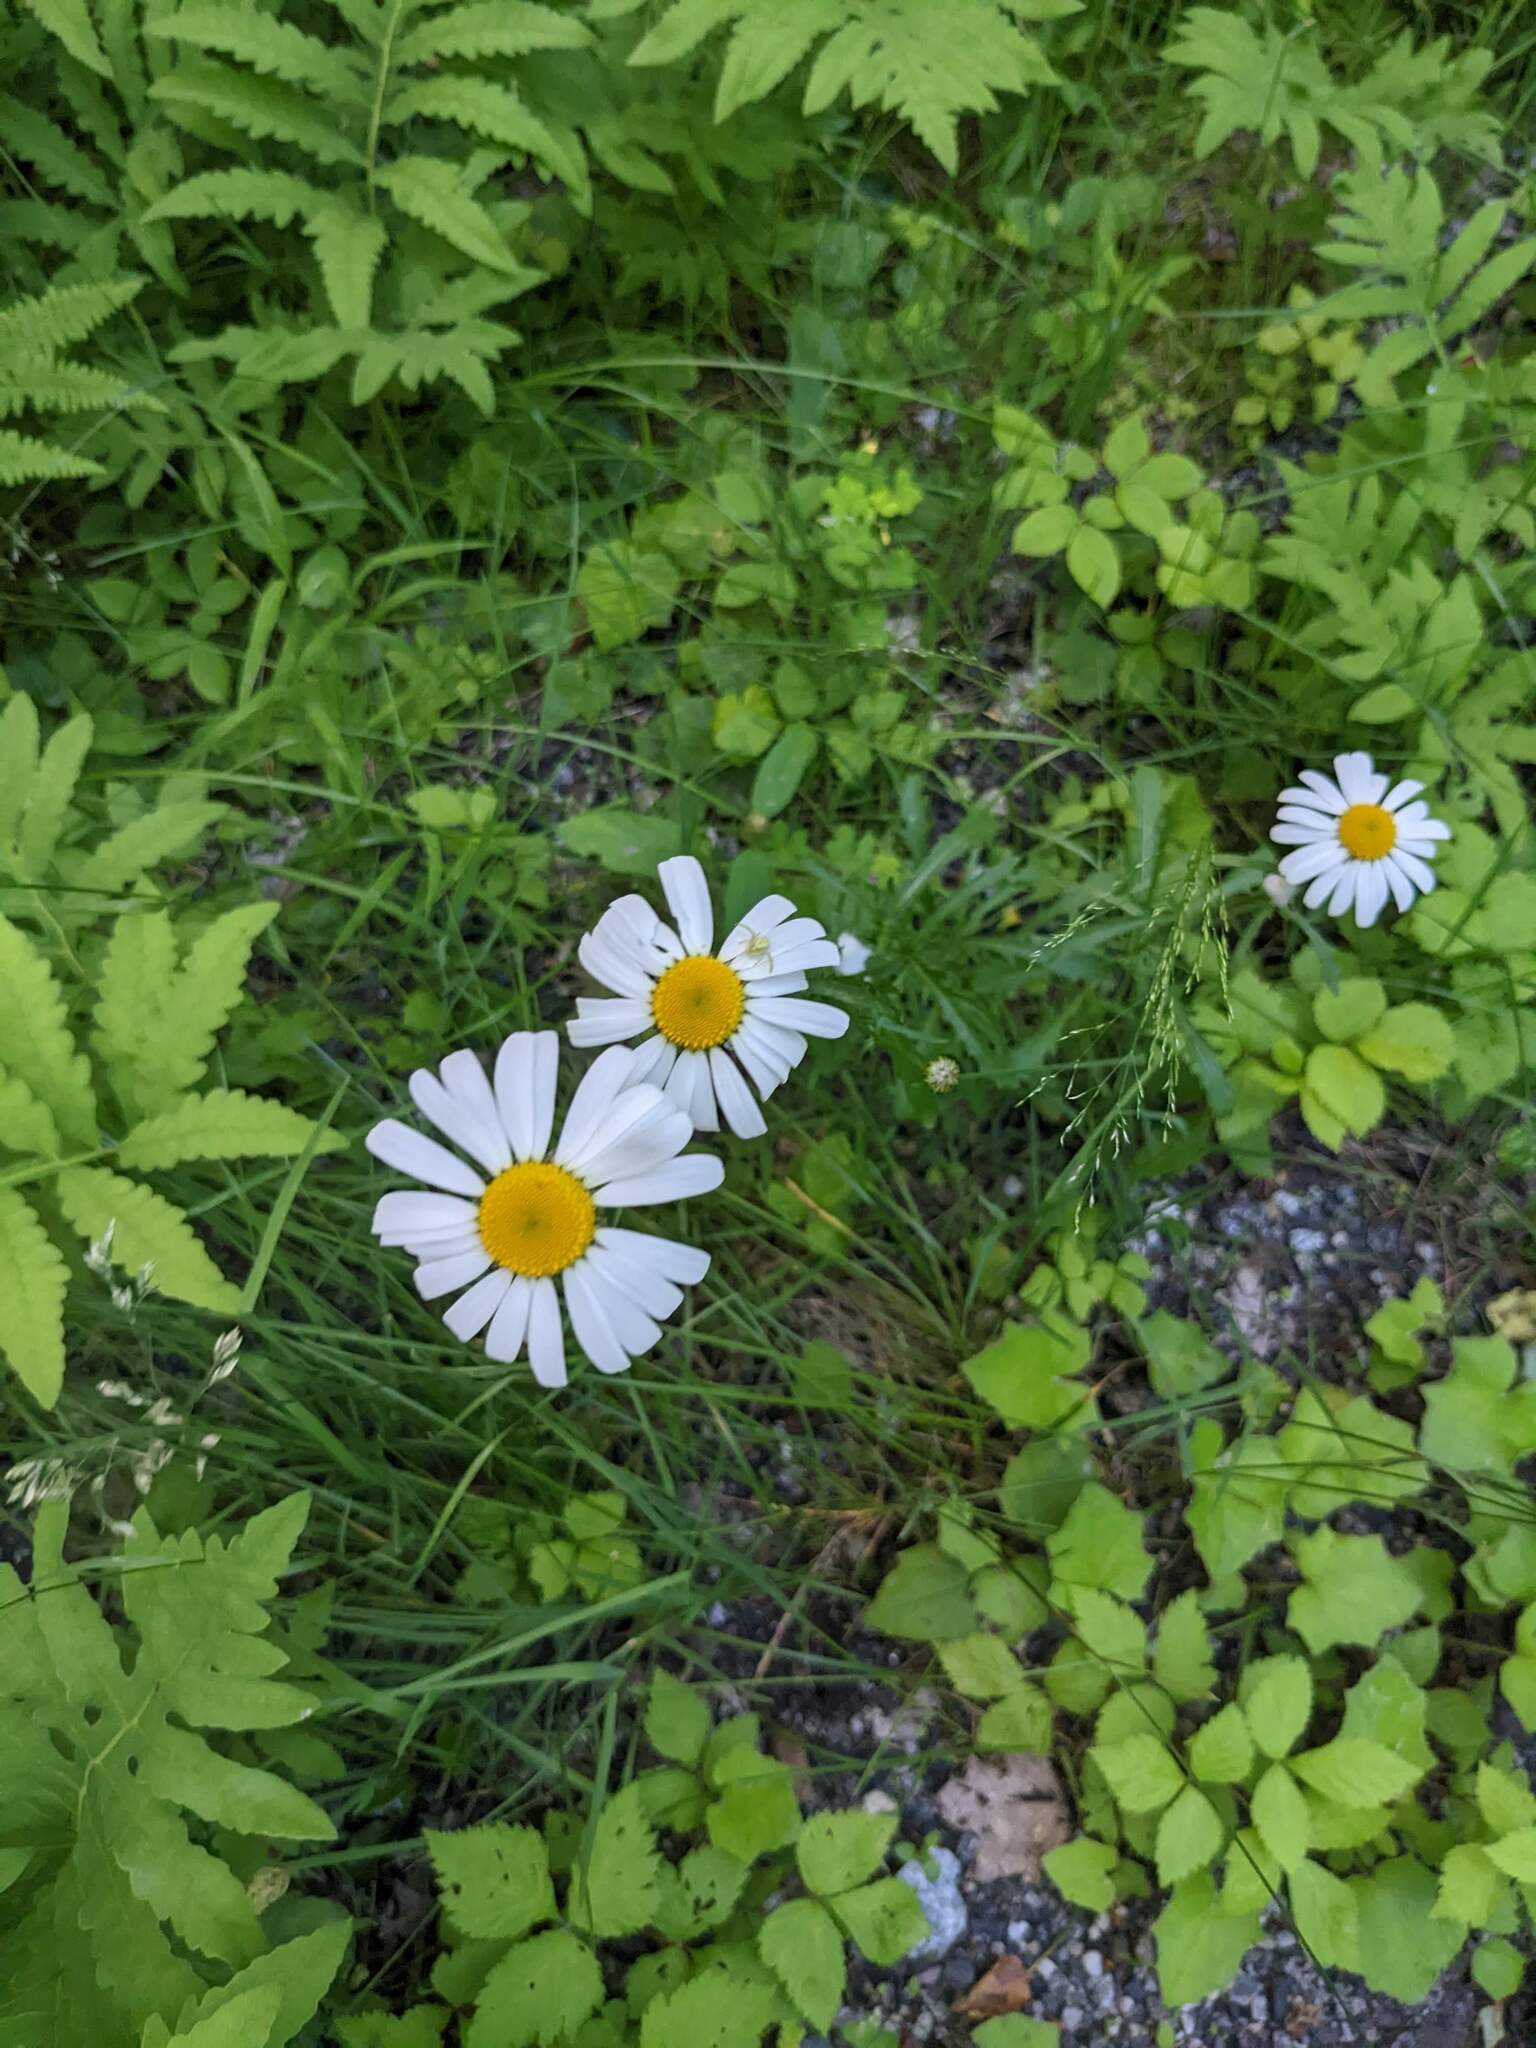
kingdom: Plantae
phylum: Tracheophyta
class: Magnoliopsida
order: Asterales
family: Asteraceae
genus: Leucanthemum
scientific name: Leucanthemum vulgare
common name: Oxeye daisy
